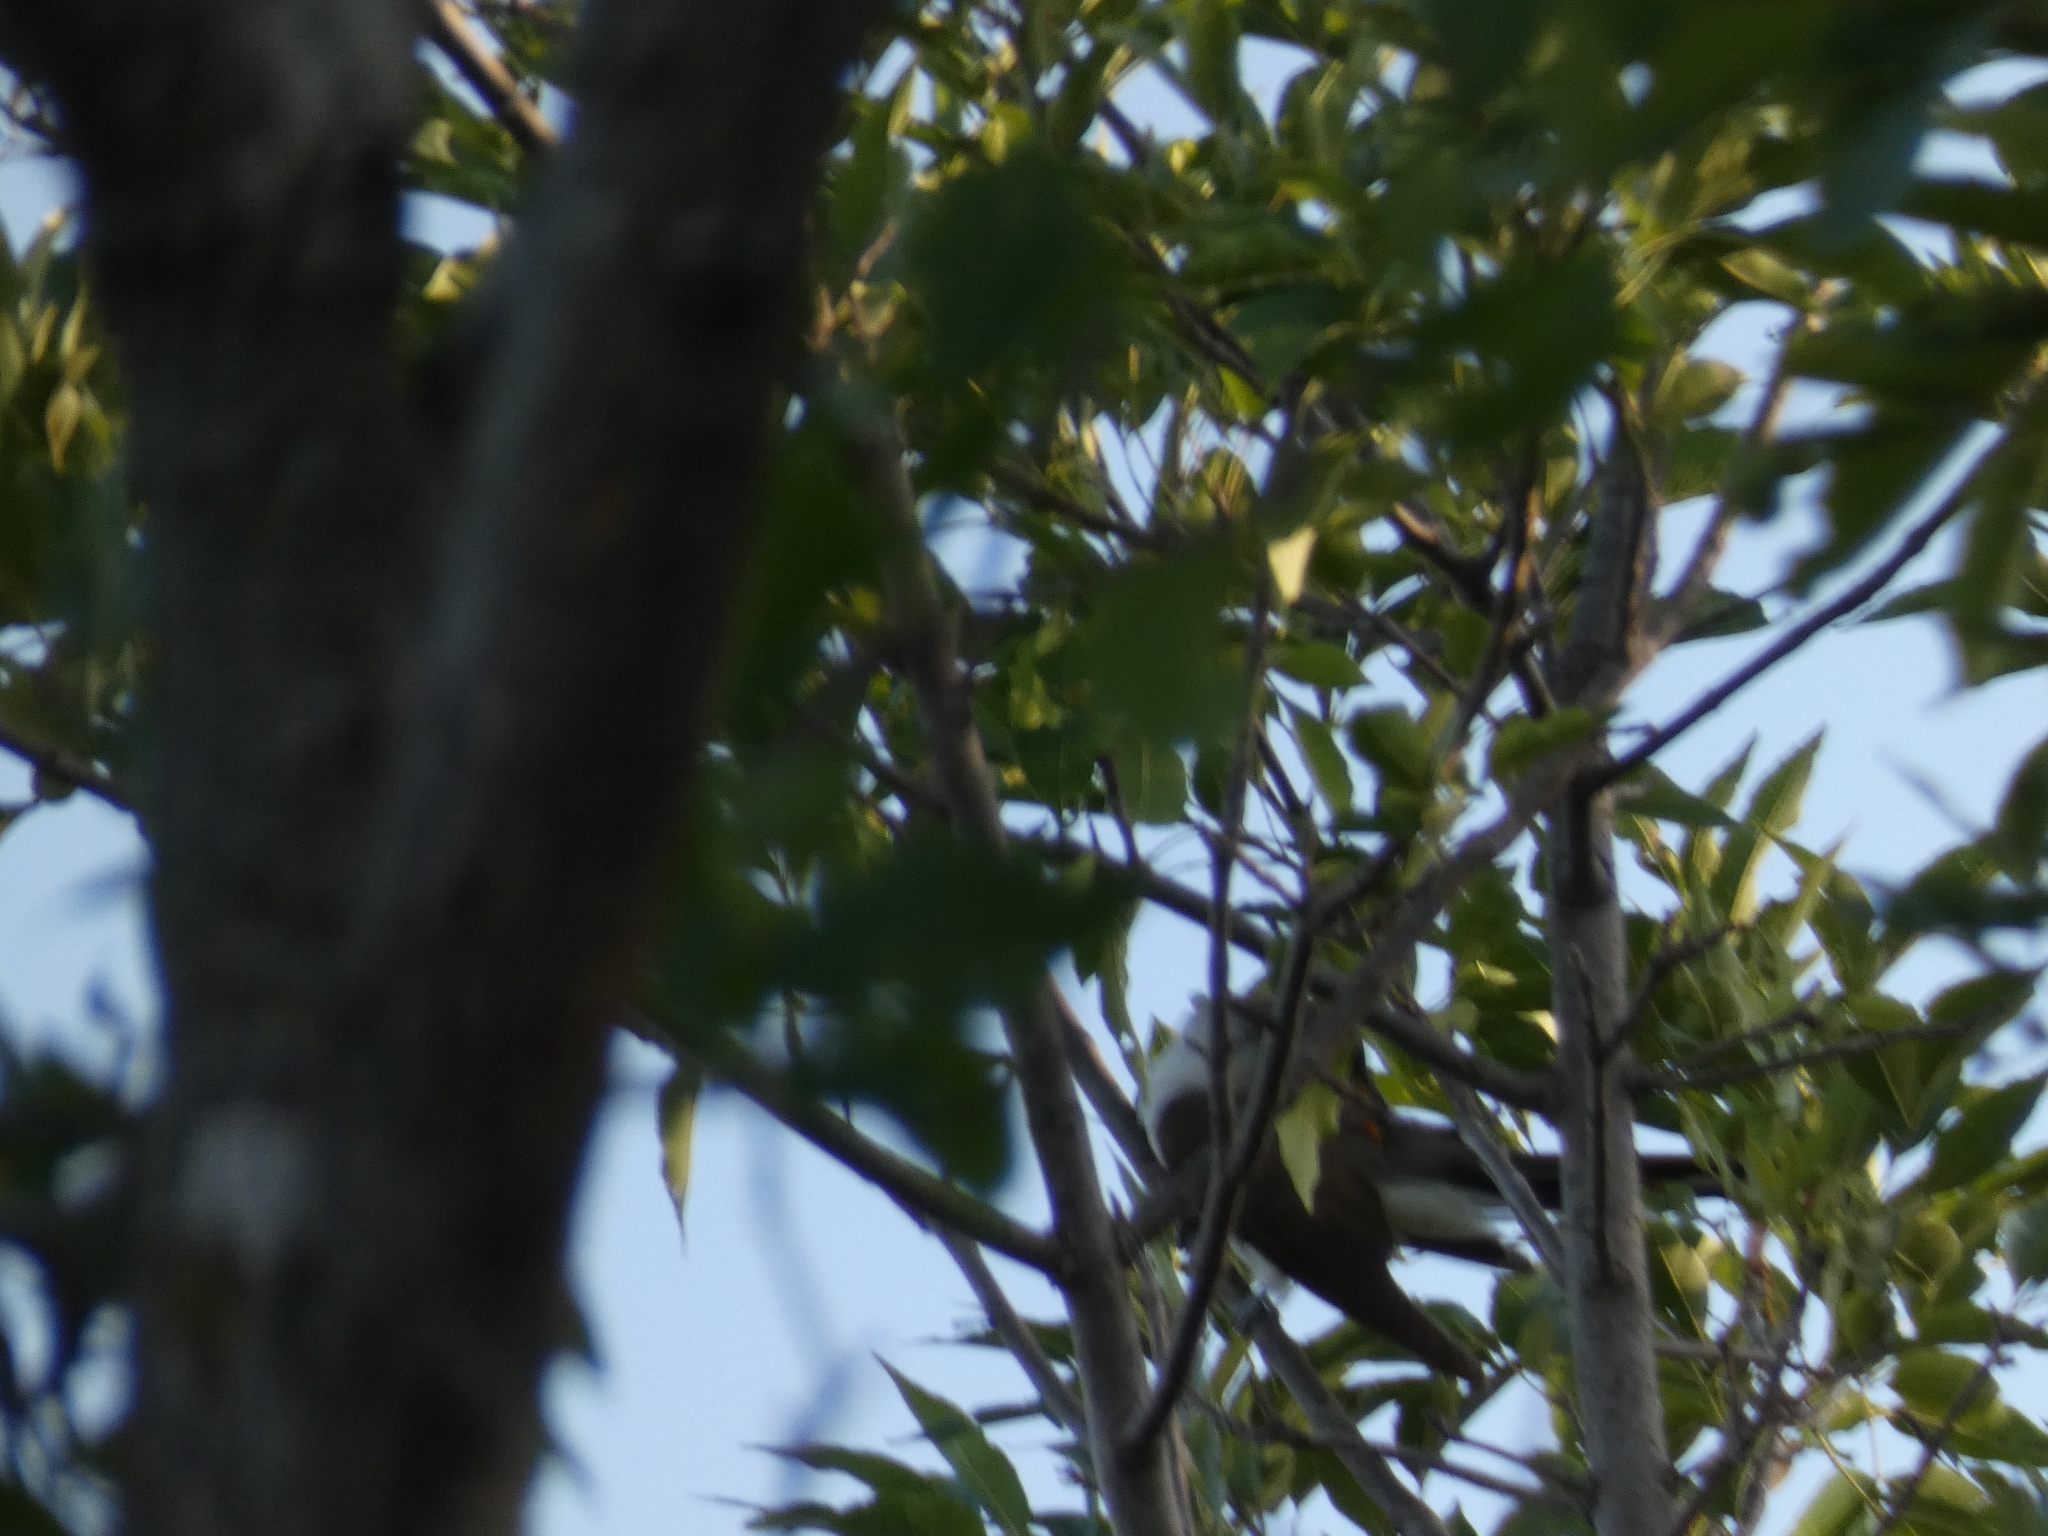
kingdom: Animalia
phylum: Chordata
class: Aves
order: Cuculiformes
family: Cuculidae
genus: Coccyzus
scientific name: Coccyzus americanus
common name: Yellow-billed cuckoo
